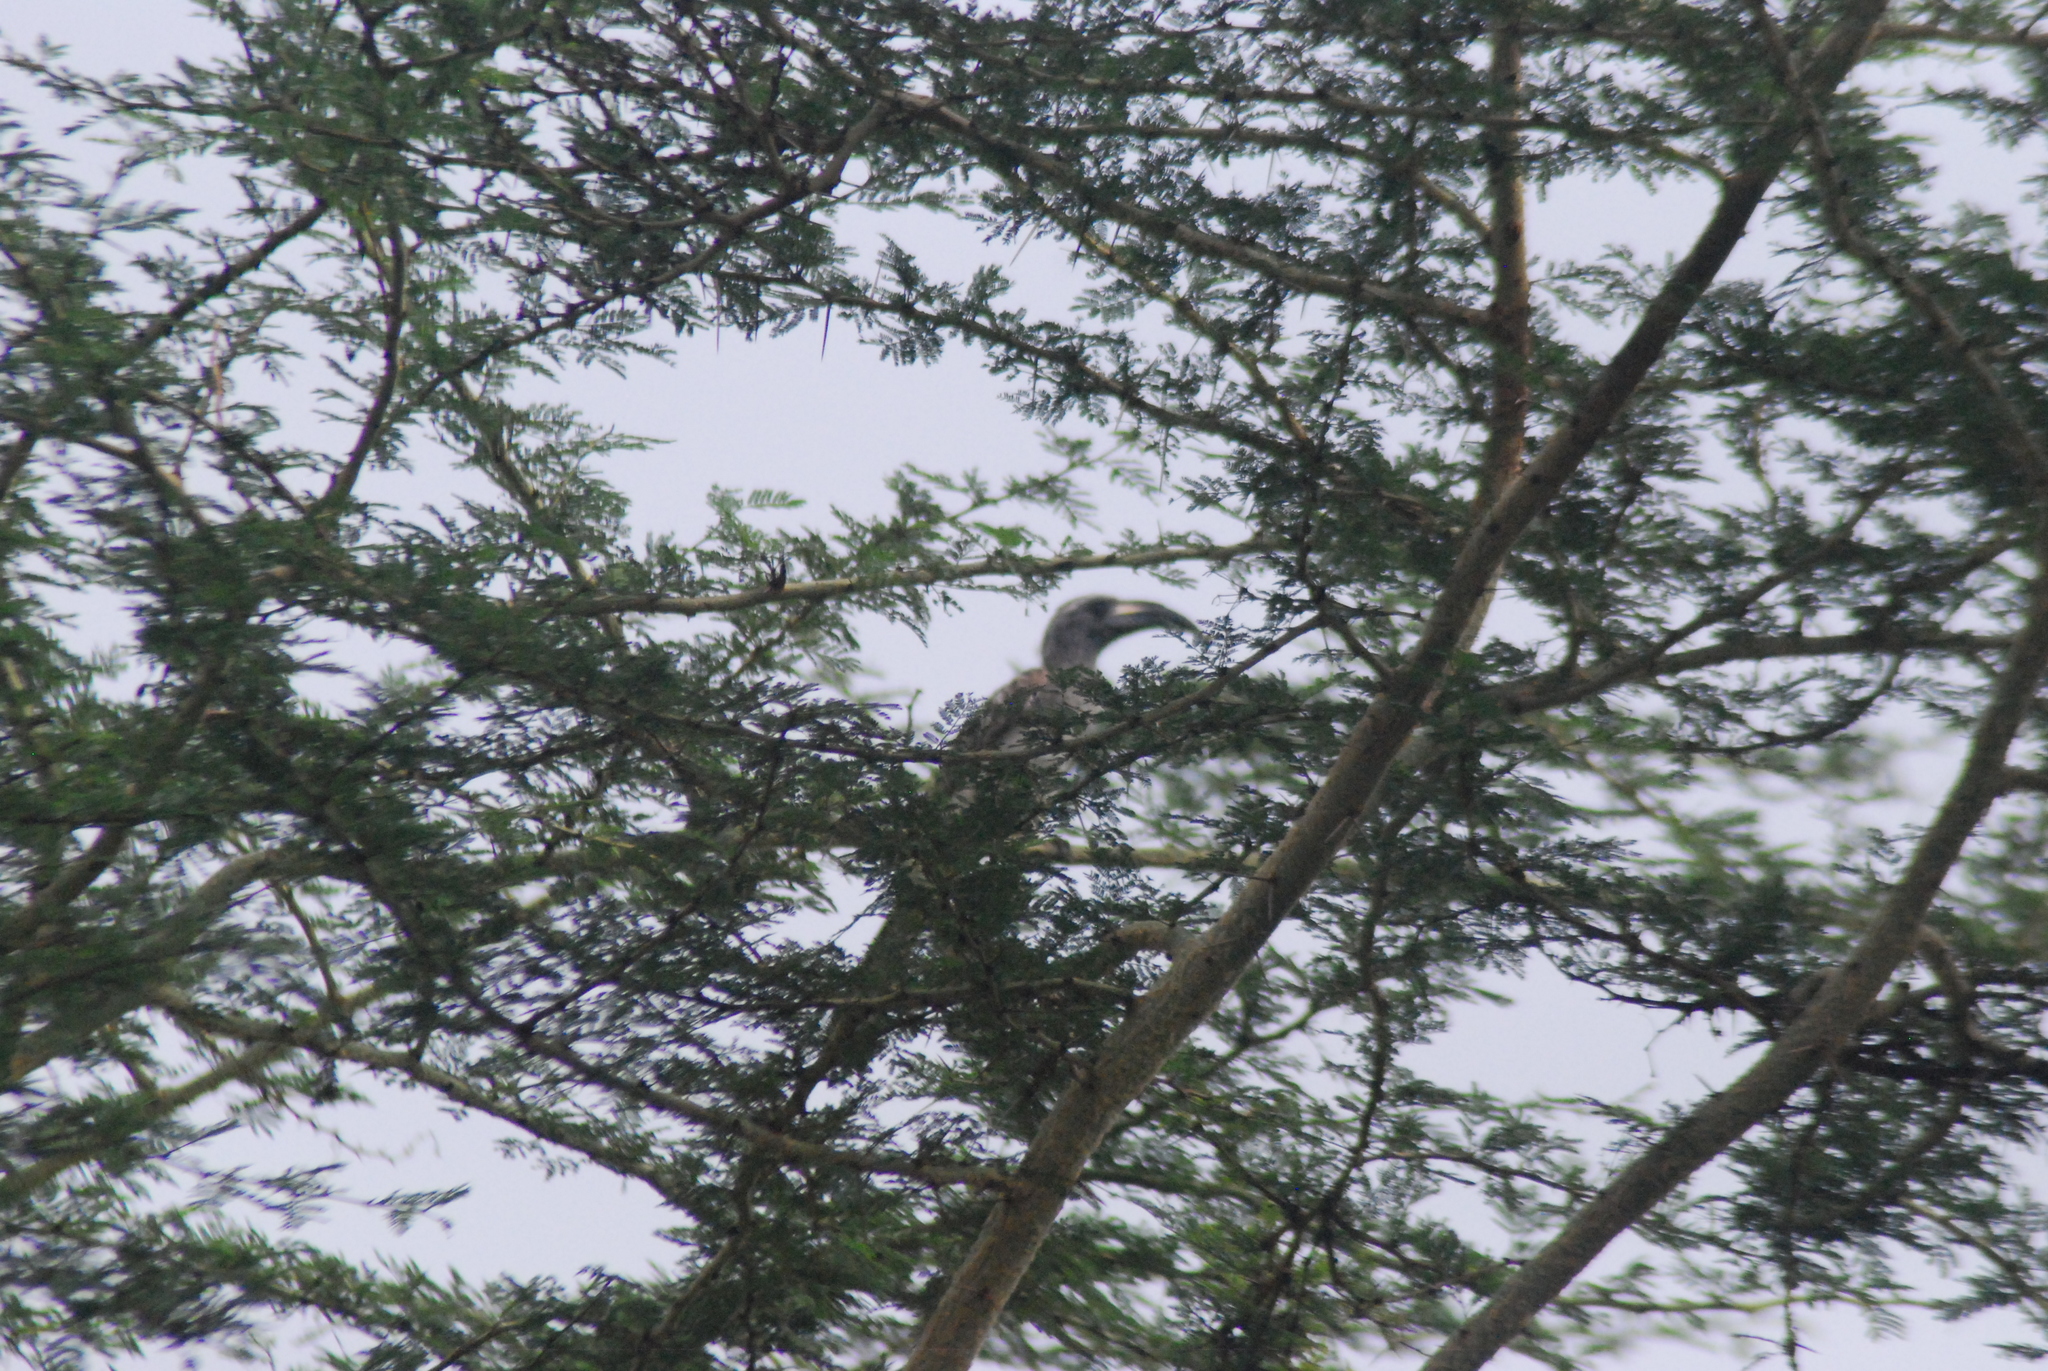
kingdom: Animalia
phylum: Chordata
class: Aves
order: Bucerotiformes
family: Bucerotidae
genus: Lophoceros
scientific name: Lophoceros nasutus
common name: African grey hornbill
